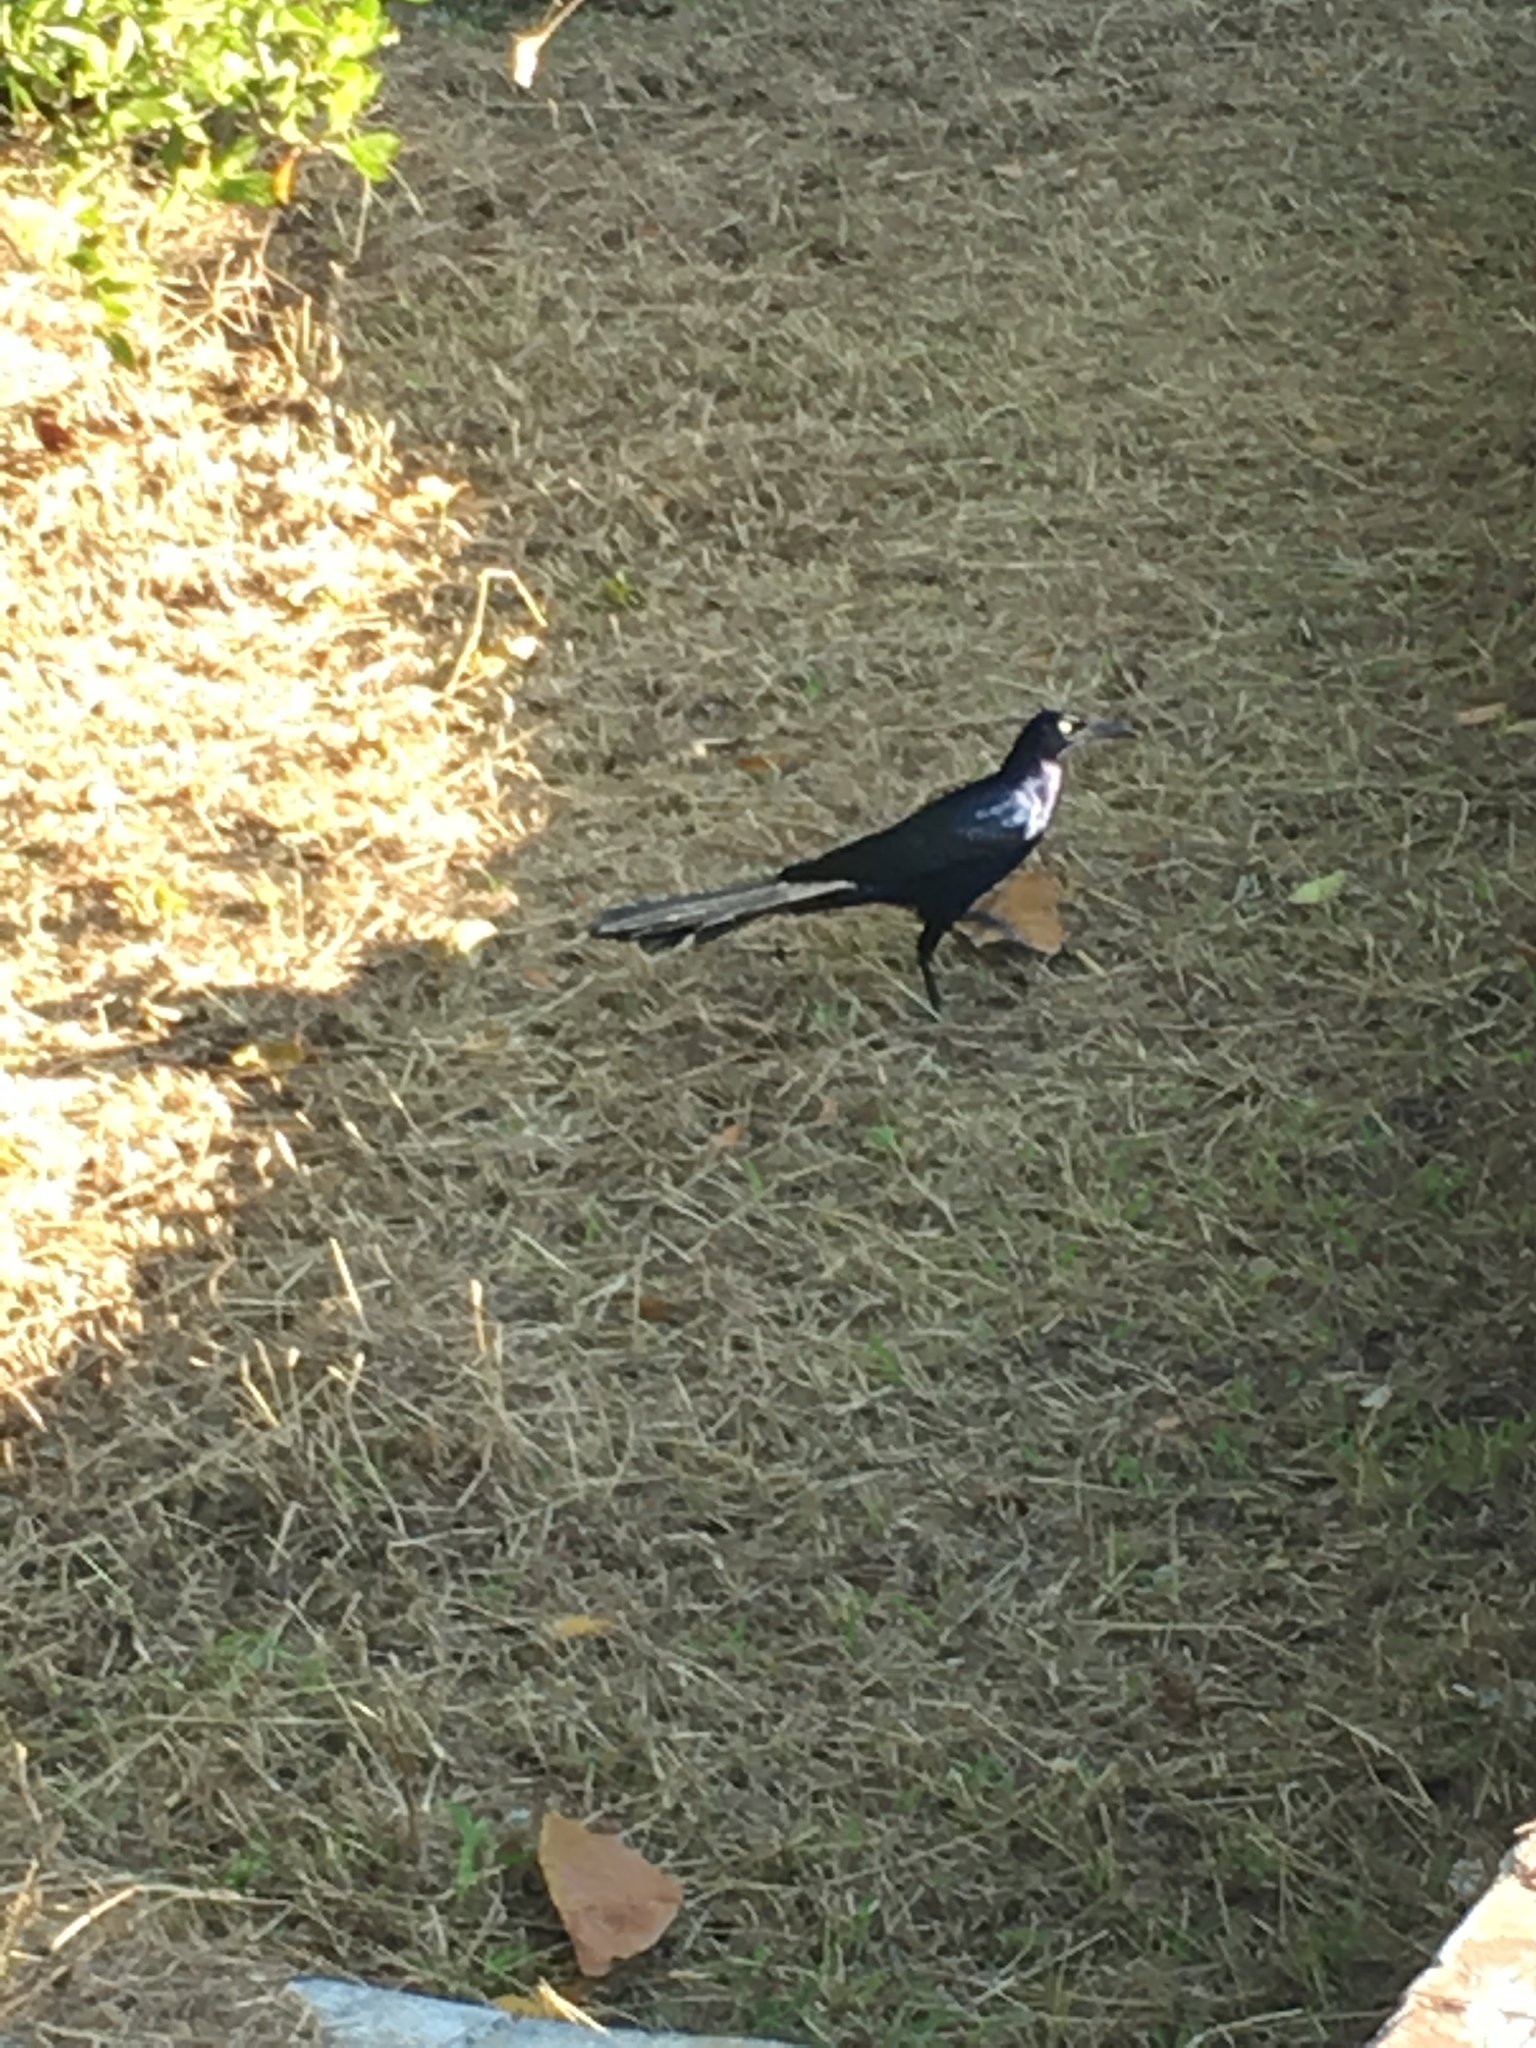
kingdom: Animalia
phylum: Chordata
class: Aves
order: Passeriformes
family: Icteridae
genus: Quiscalus
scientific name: Quiscalus mexicanus
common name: Great-tailed grackle
